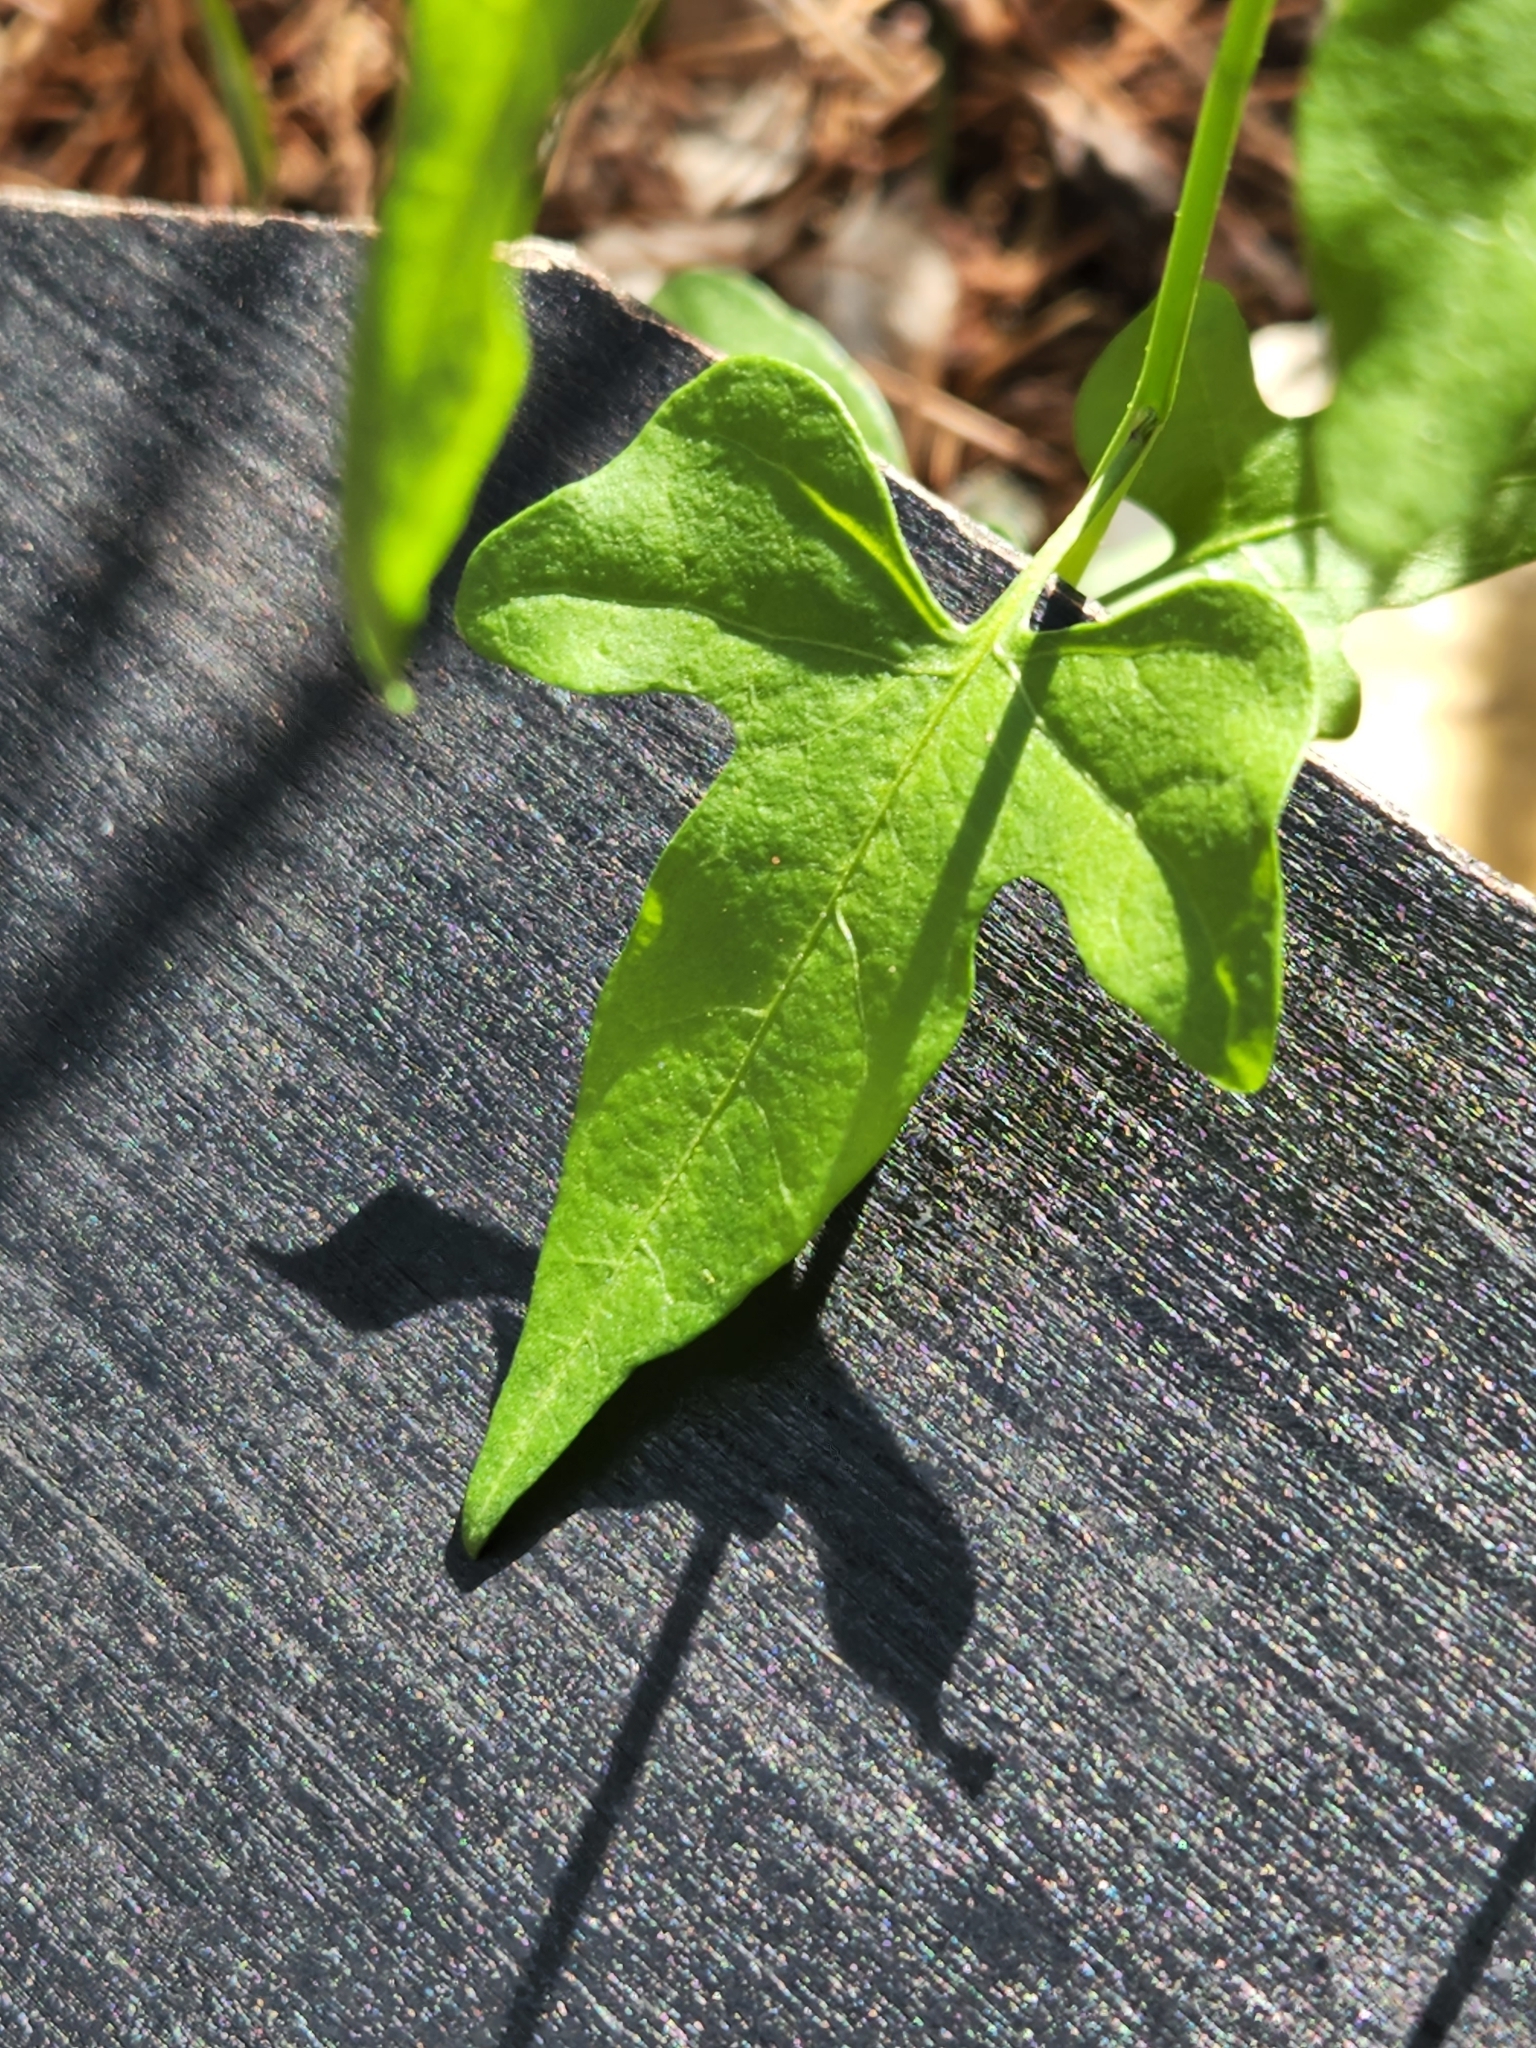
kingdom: Plantae
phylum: Tracheophyta
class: Magnoliopsida
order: Solanales
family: Solanaceae
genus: Solanum
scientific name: Solanum triquetrum
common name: Texas nightshade
